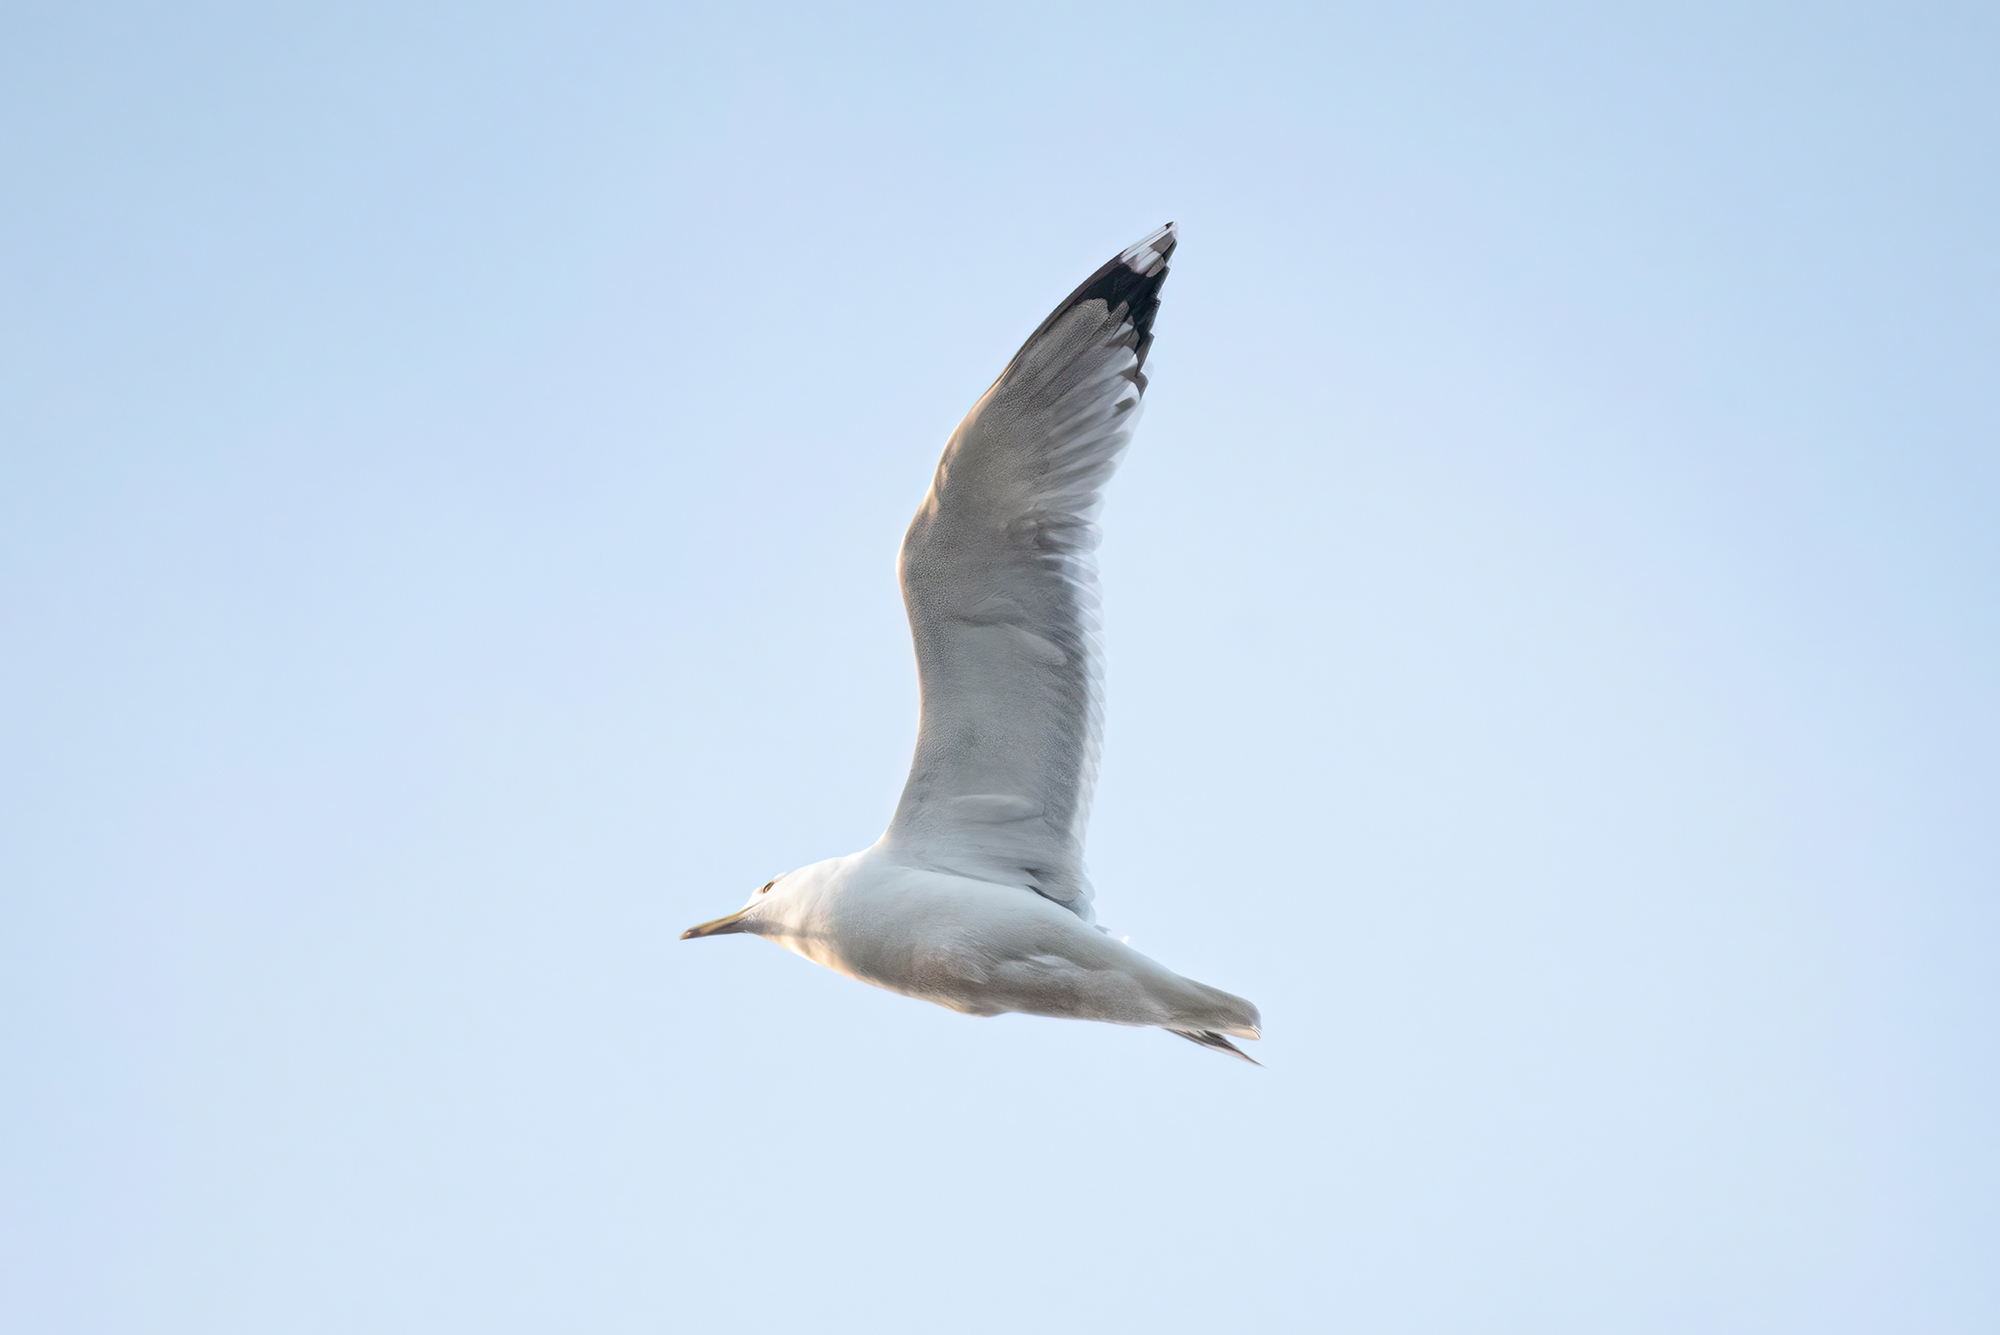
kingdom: Animalia
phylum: Chordata
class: Aves
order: Charadriiformes
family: Laridae
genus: Larus
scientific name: Larus cachinnans
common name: Caspian gull
